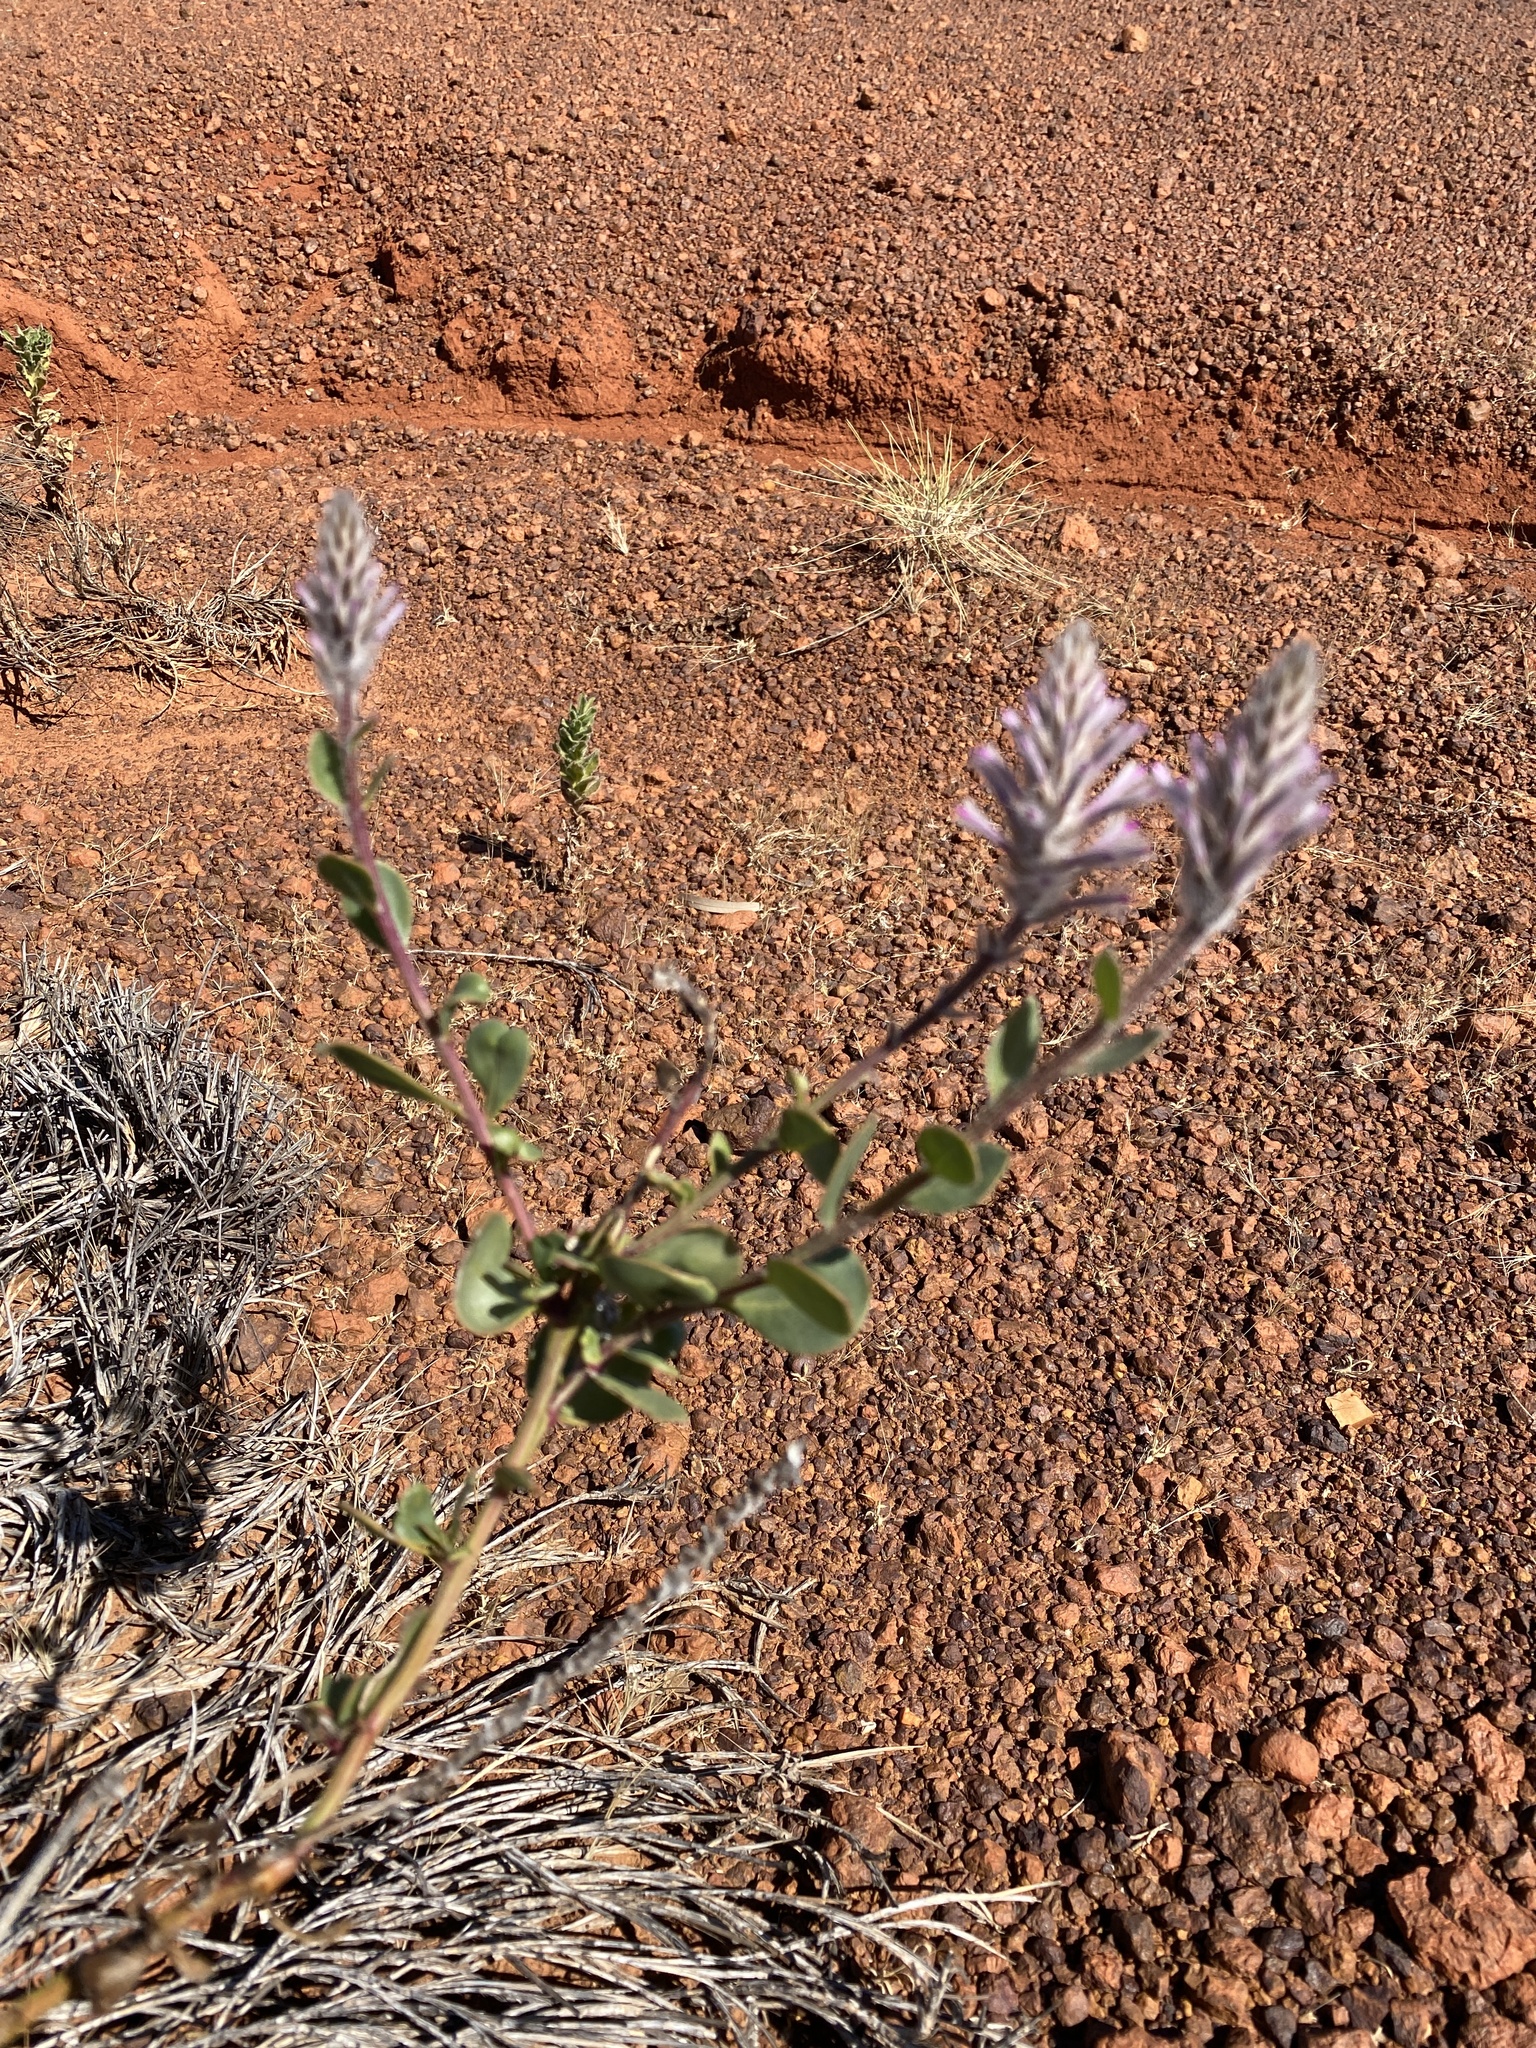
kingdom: Plantae
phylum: Tracheophyta
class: Magnoliopsida
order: Caryophyllales
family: Amaranthaceae
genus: Ptilotus
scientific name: Ptilotus exaltatus
